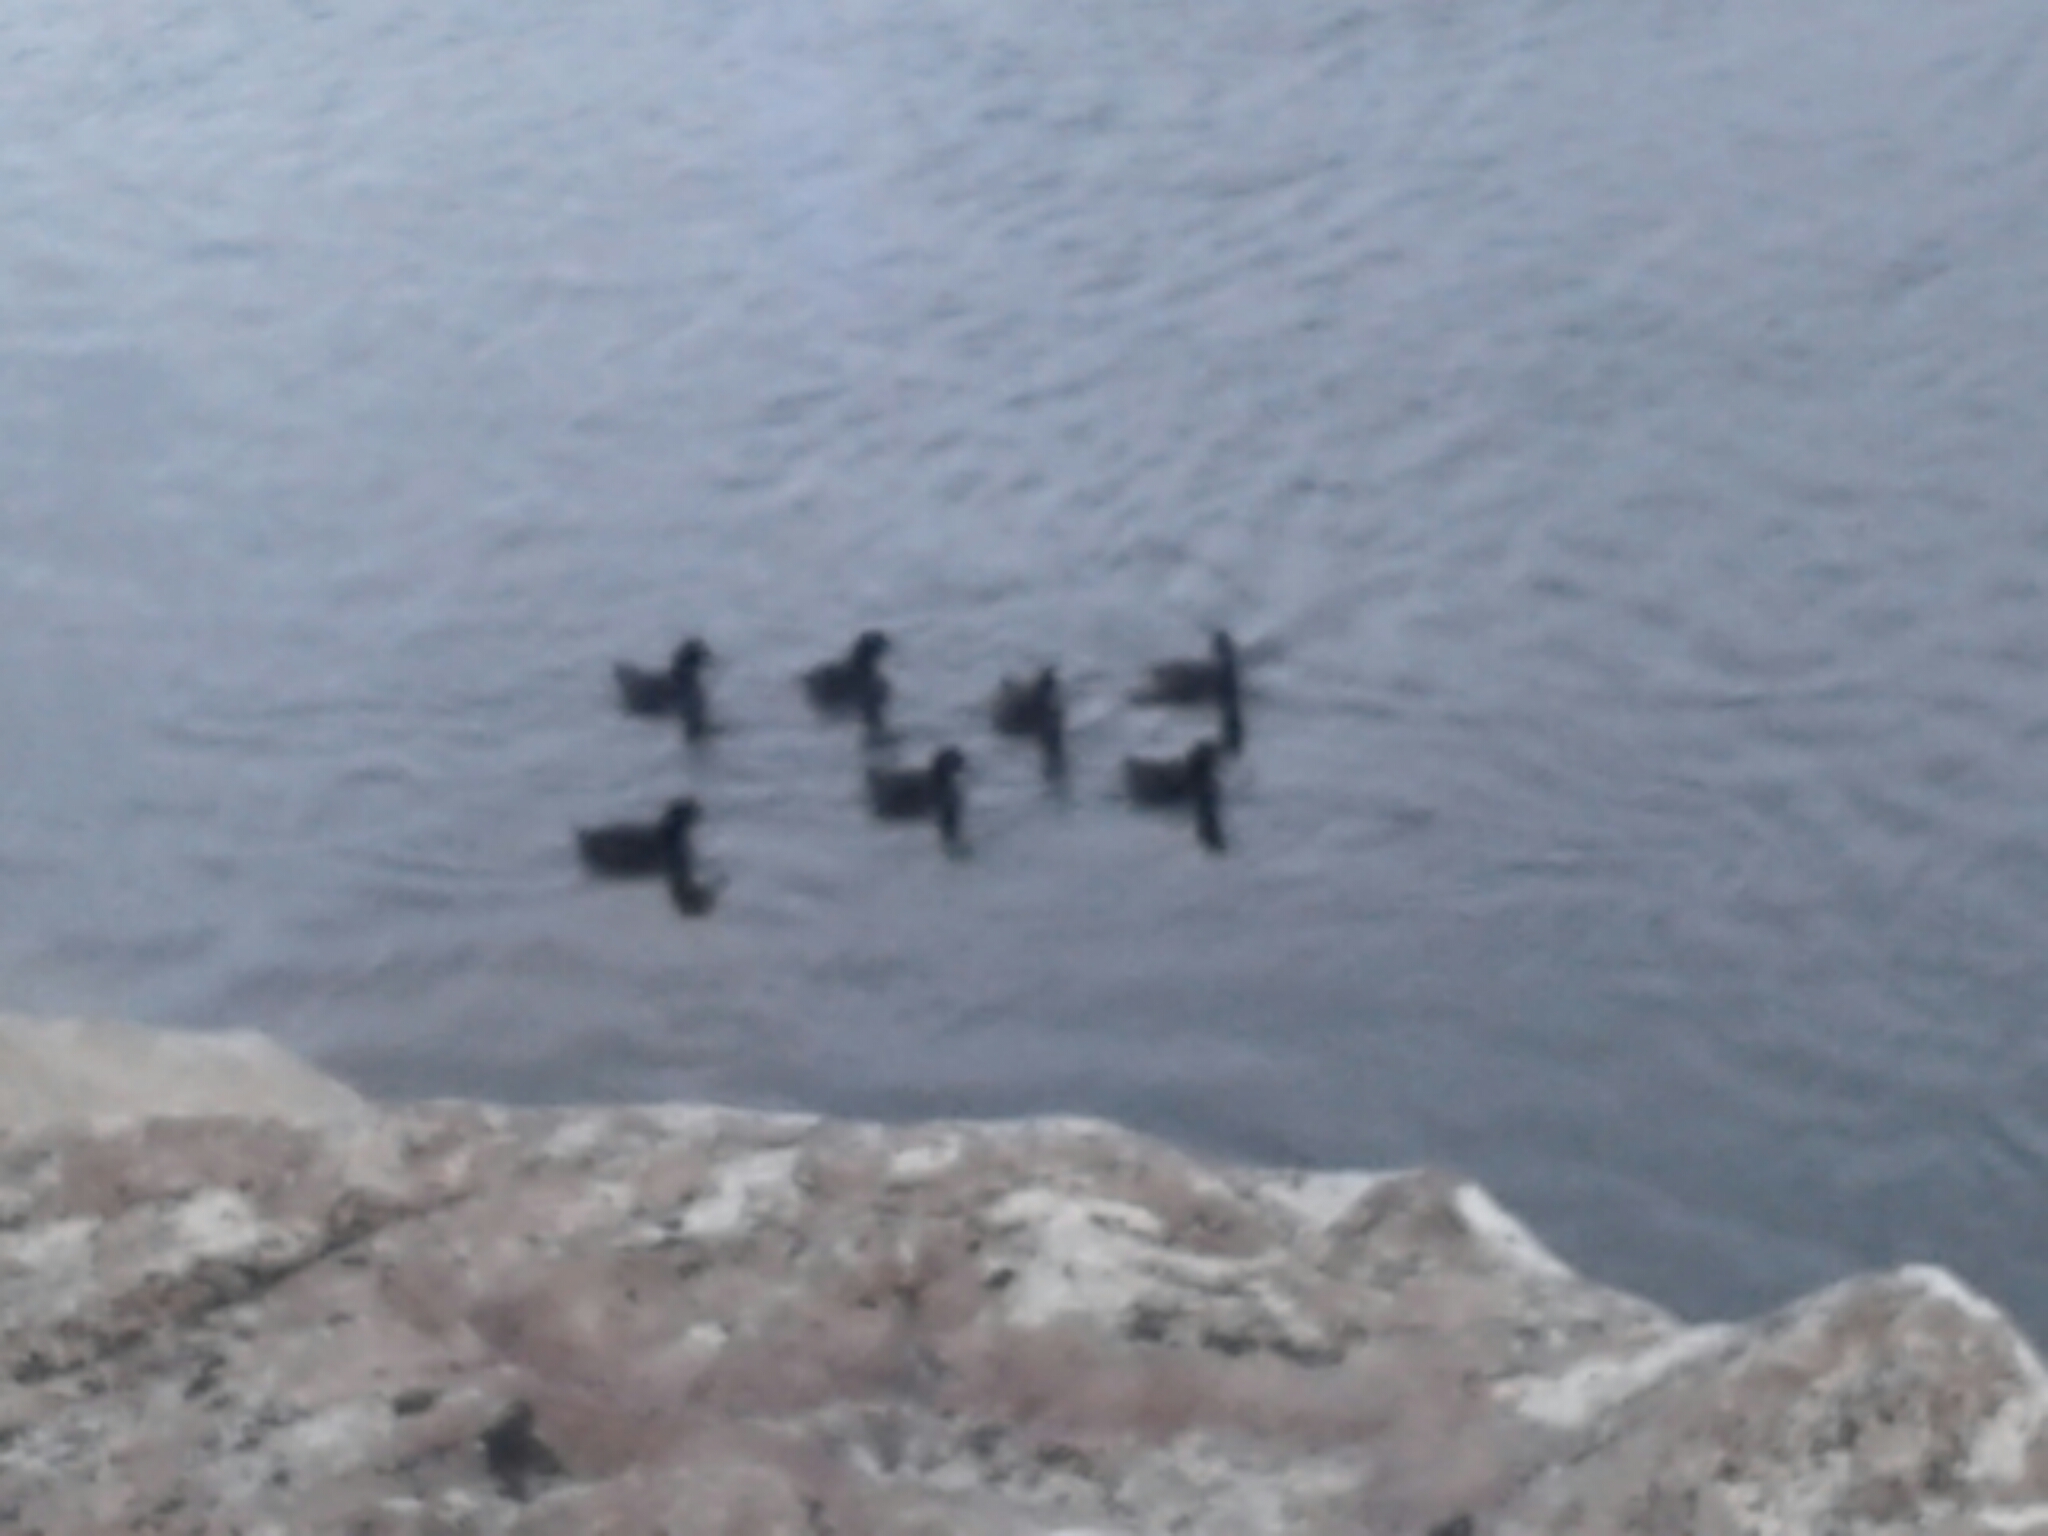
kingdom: Animalia
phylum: Chordata
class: Aves
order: Anseriformes
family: Anatidae
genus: Aythya
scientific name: Aythya novaeseelandiae
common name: New zealand scaup
